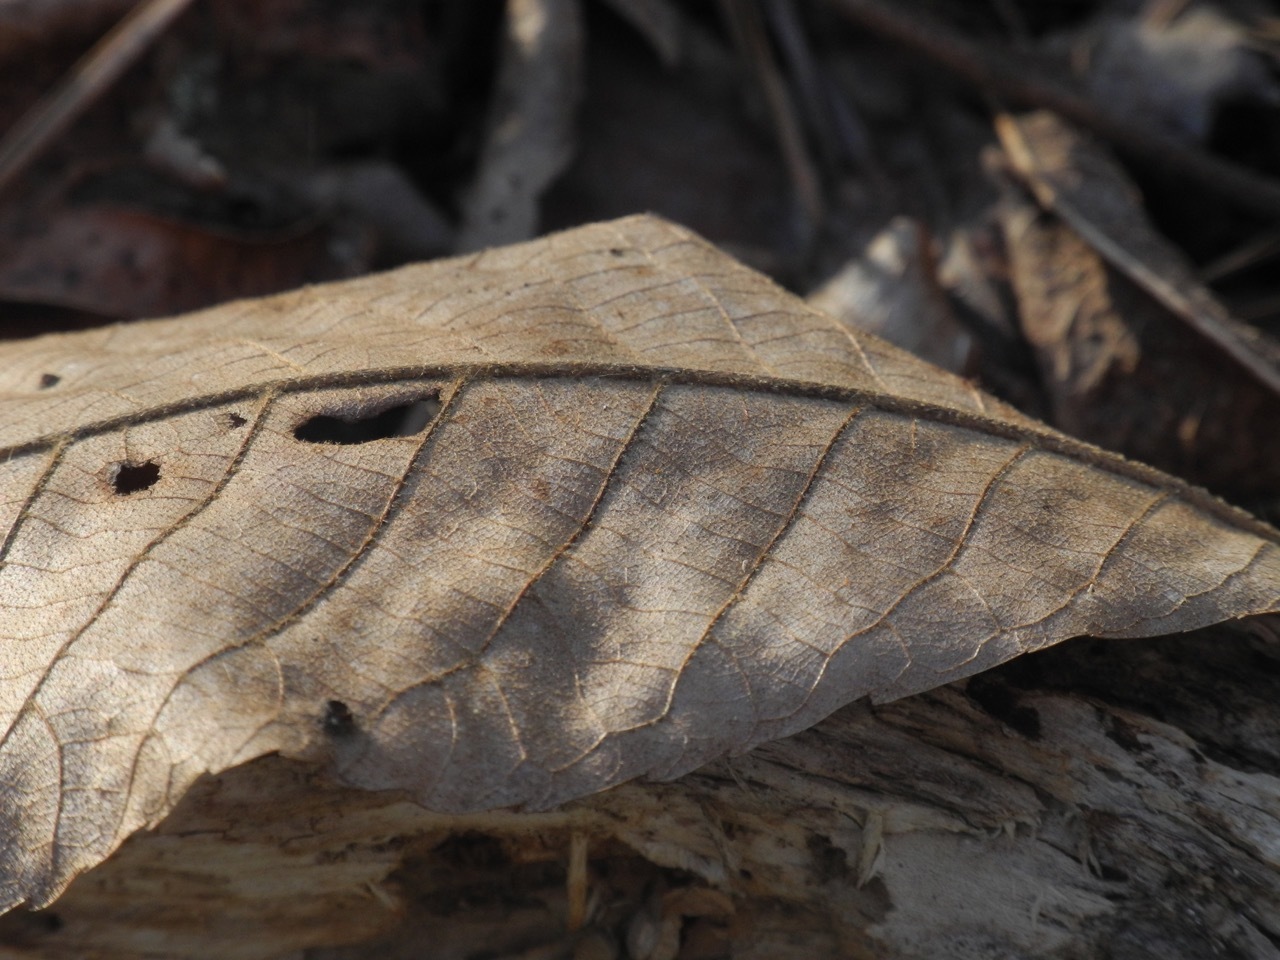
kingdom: Plantae
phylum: Tracheophyta
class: Magnoliopsida
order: Fagales
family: Juglandaceae
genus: Carya
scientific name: Carya alba
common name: Mockernut hickory
